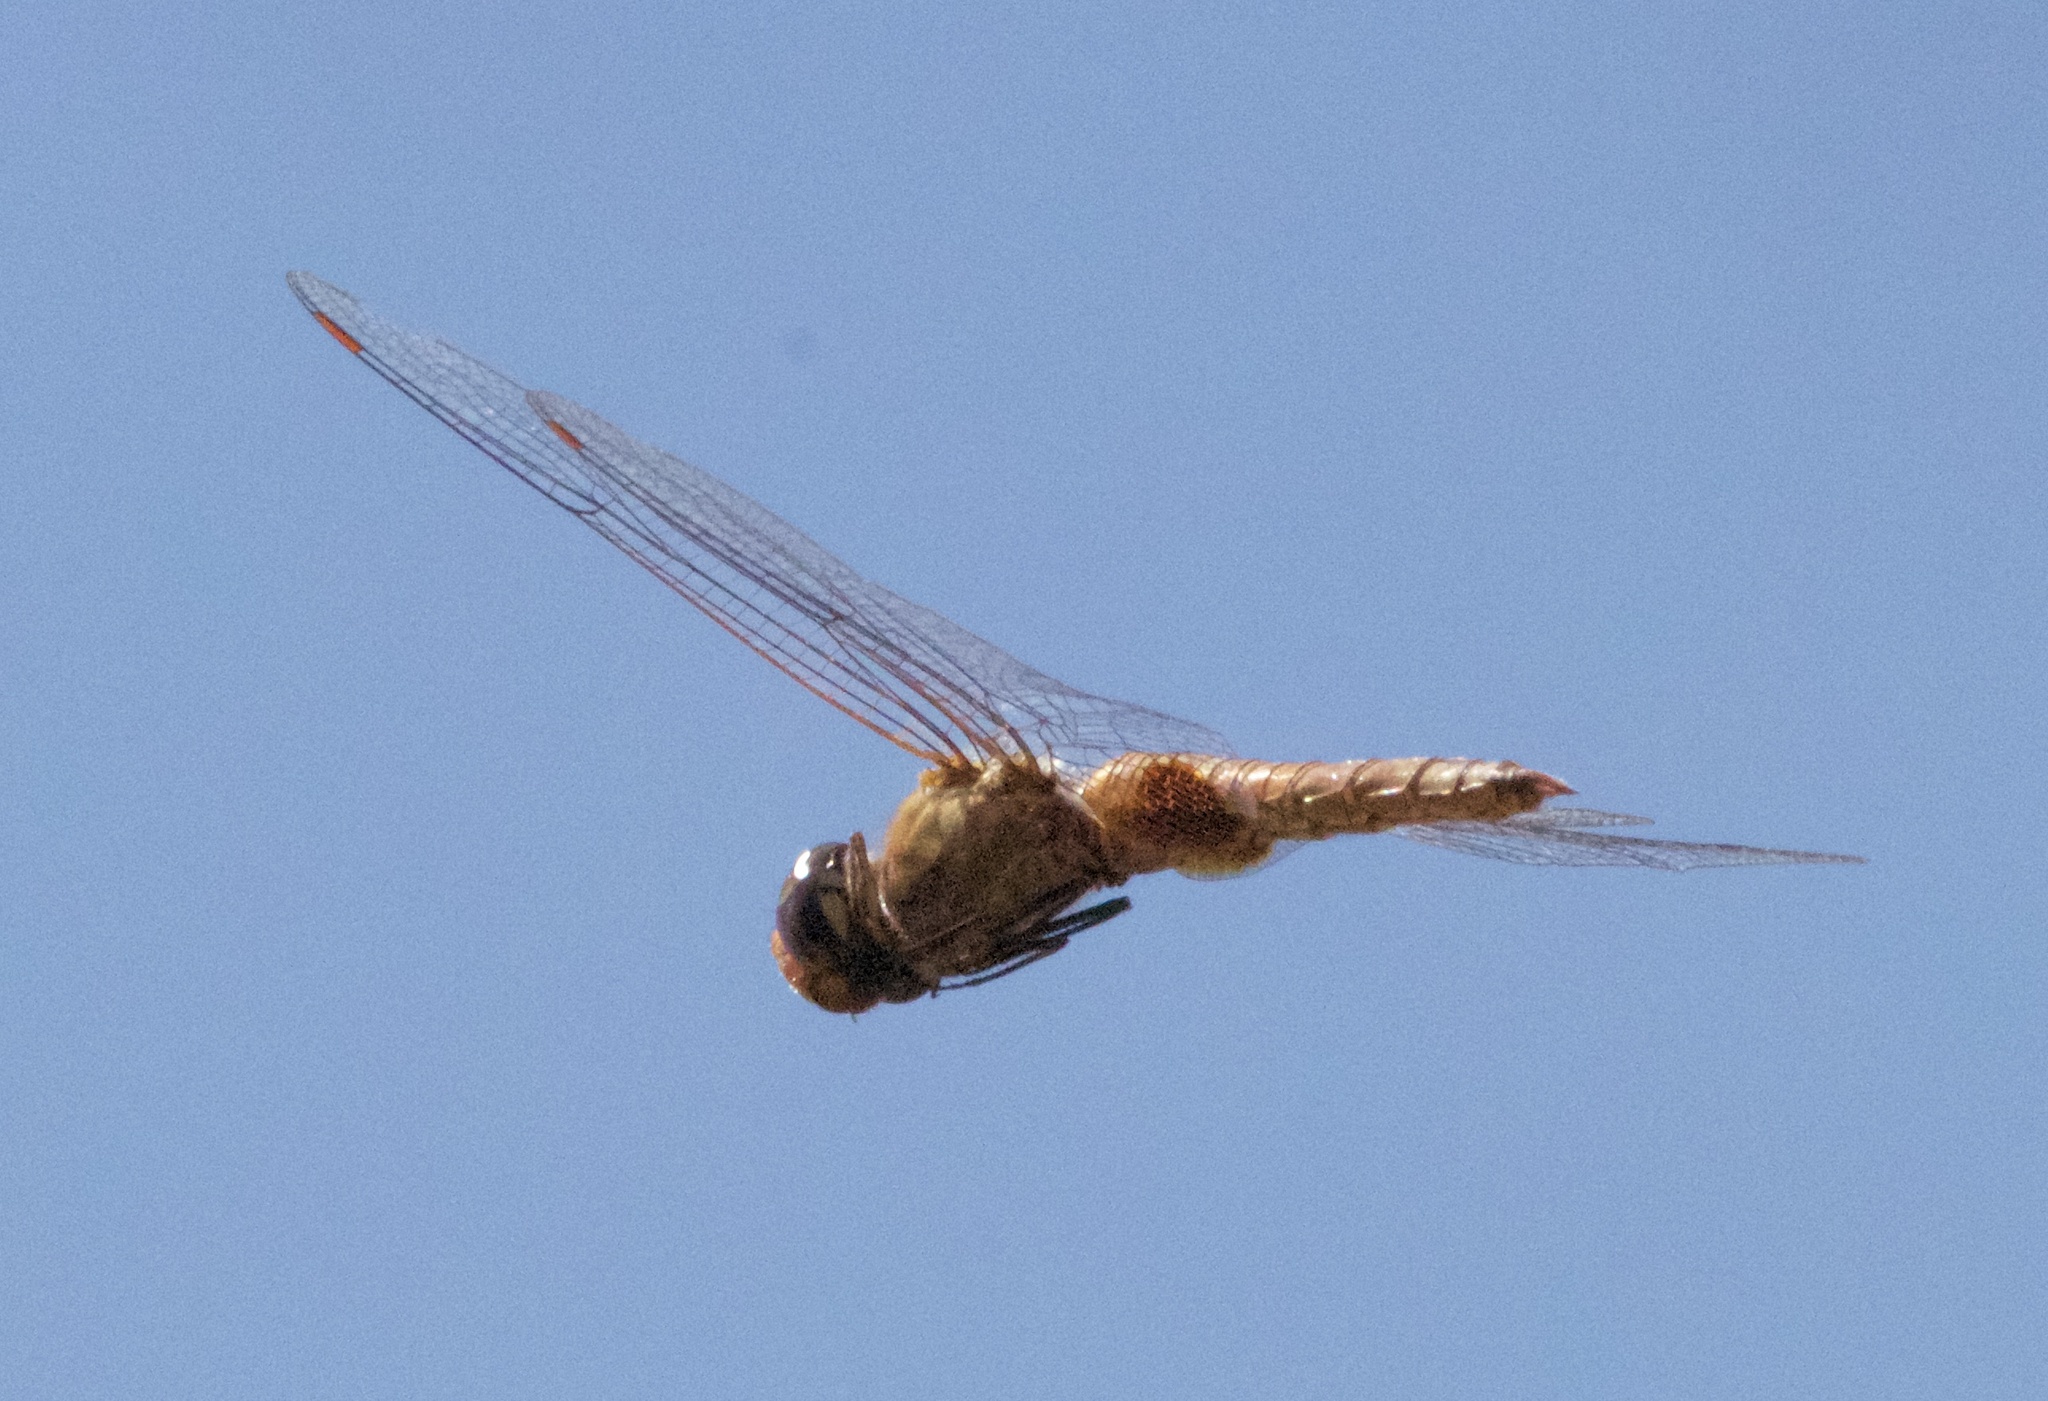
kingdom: Animalia
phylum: Arthropoda
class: Insecta
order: Odonata
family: Libellulidae
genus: Pantala
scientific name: Pantala hymenaea
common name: Spot-winged glider
